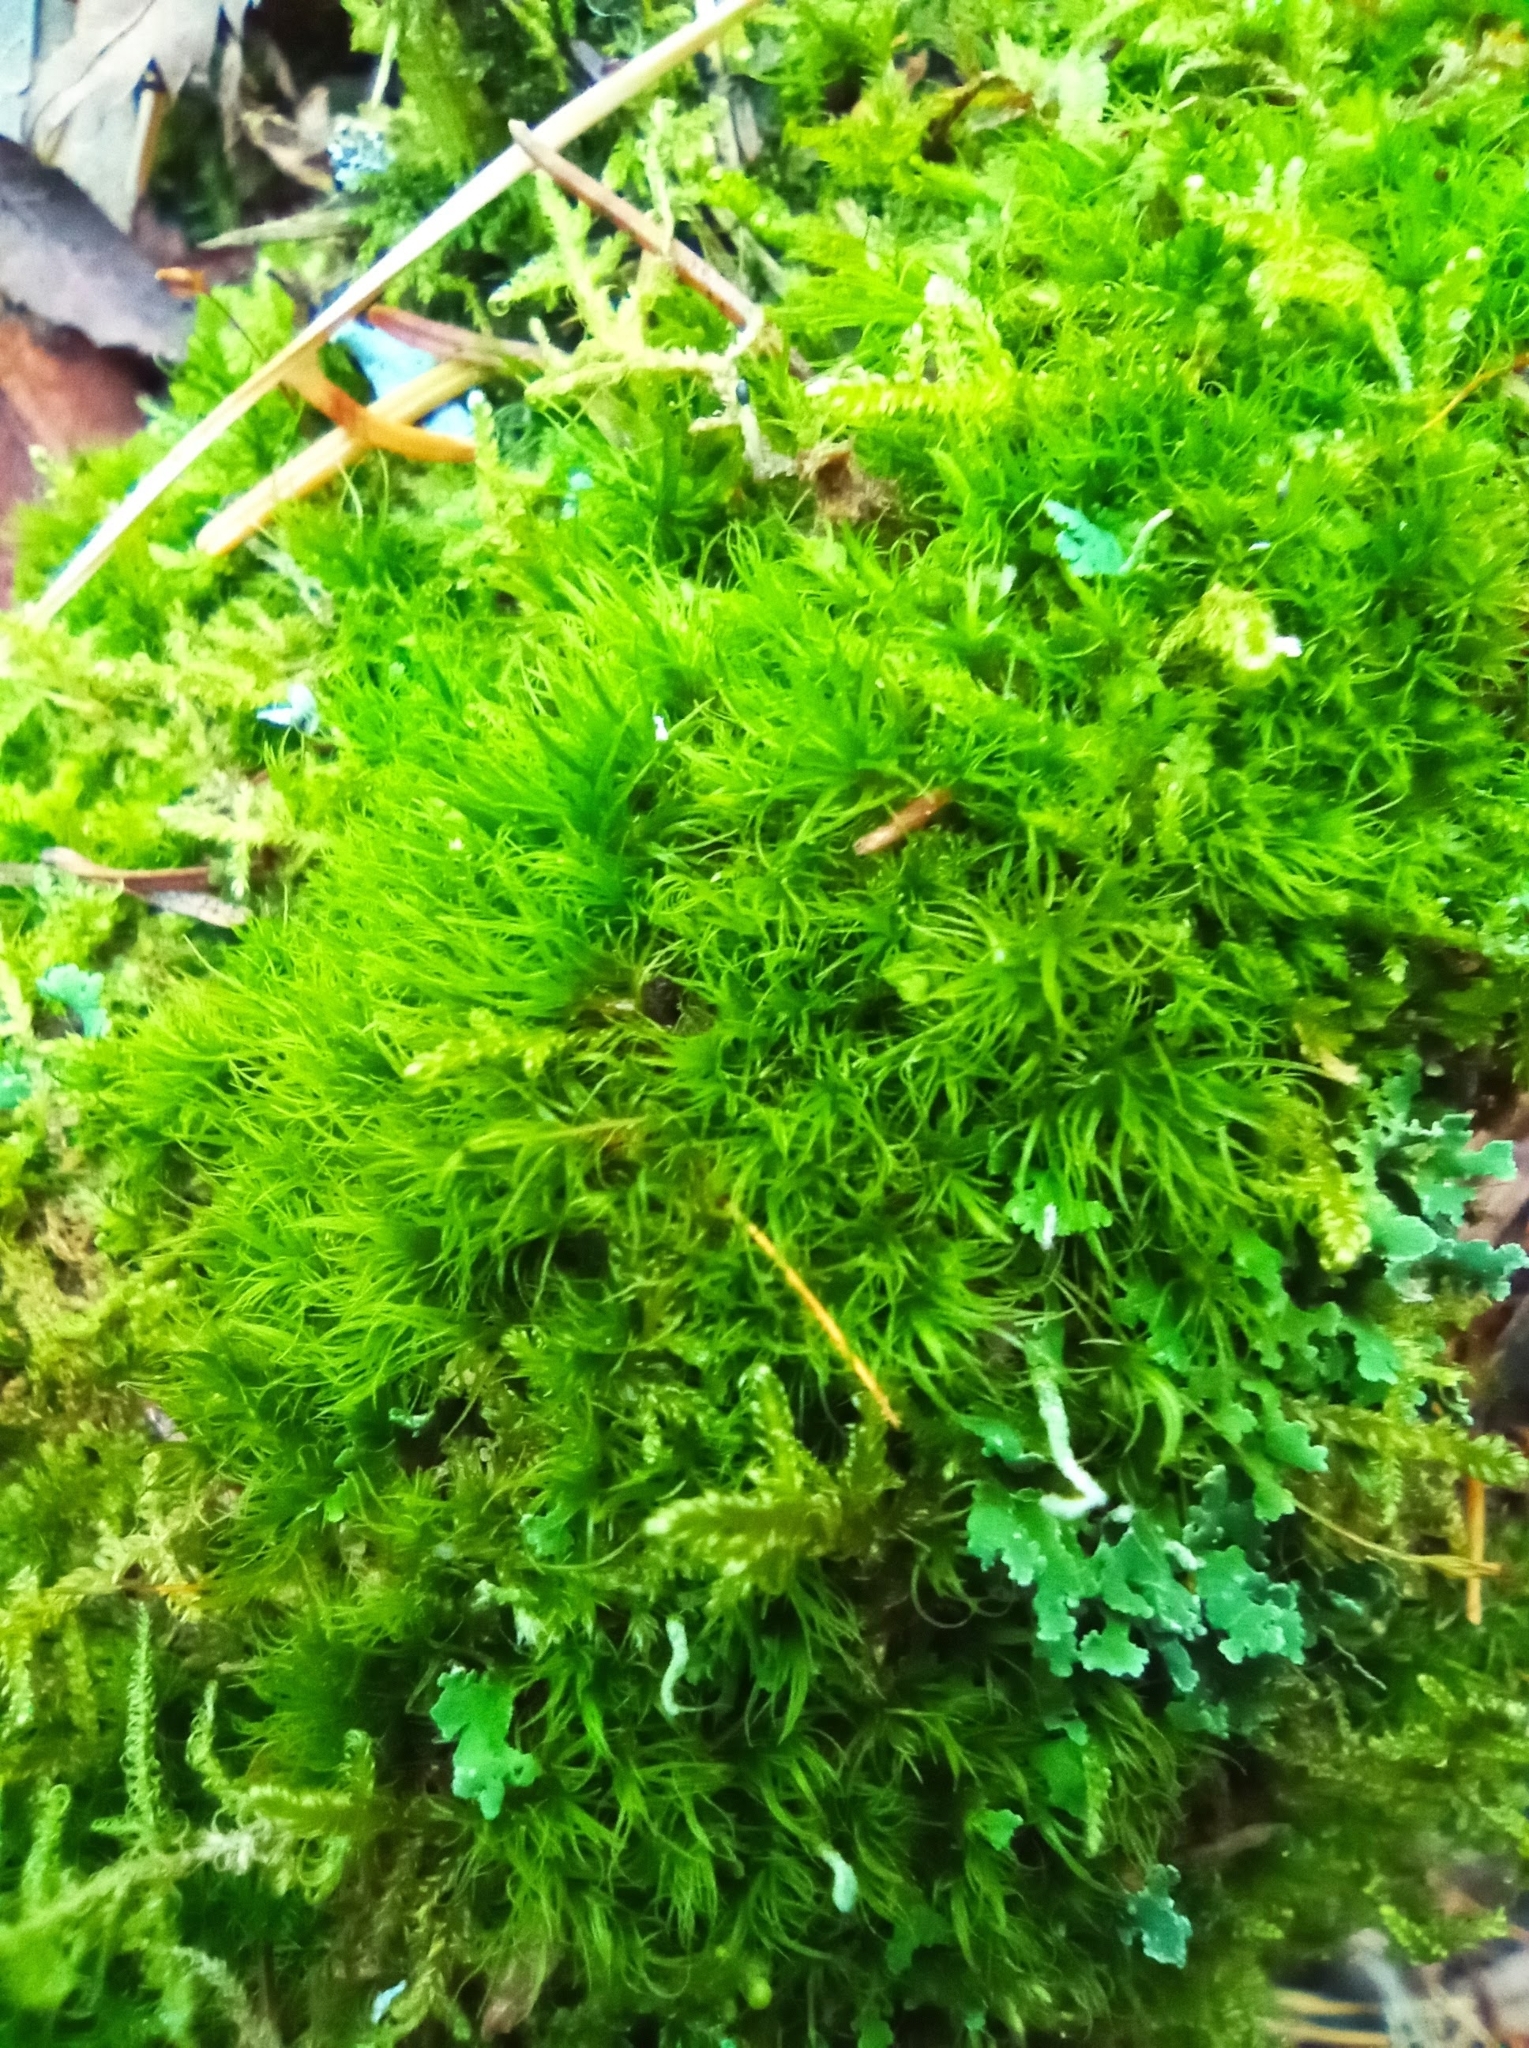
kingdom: Plantae
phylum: Bryophyta
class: Bryopsida
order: Dicranales
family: Dicranaceae
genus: Orthodicranum
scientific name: Orthodicranum montanum
